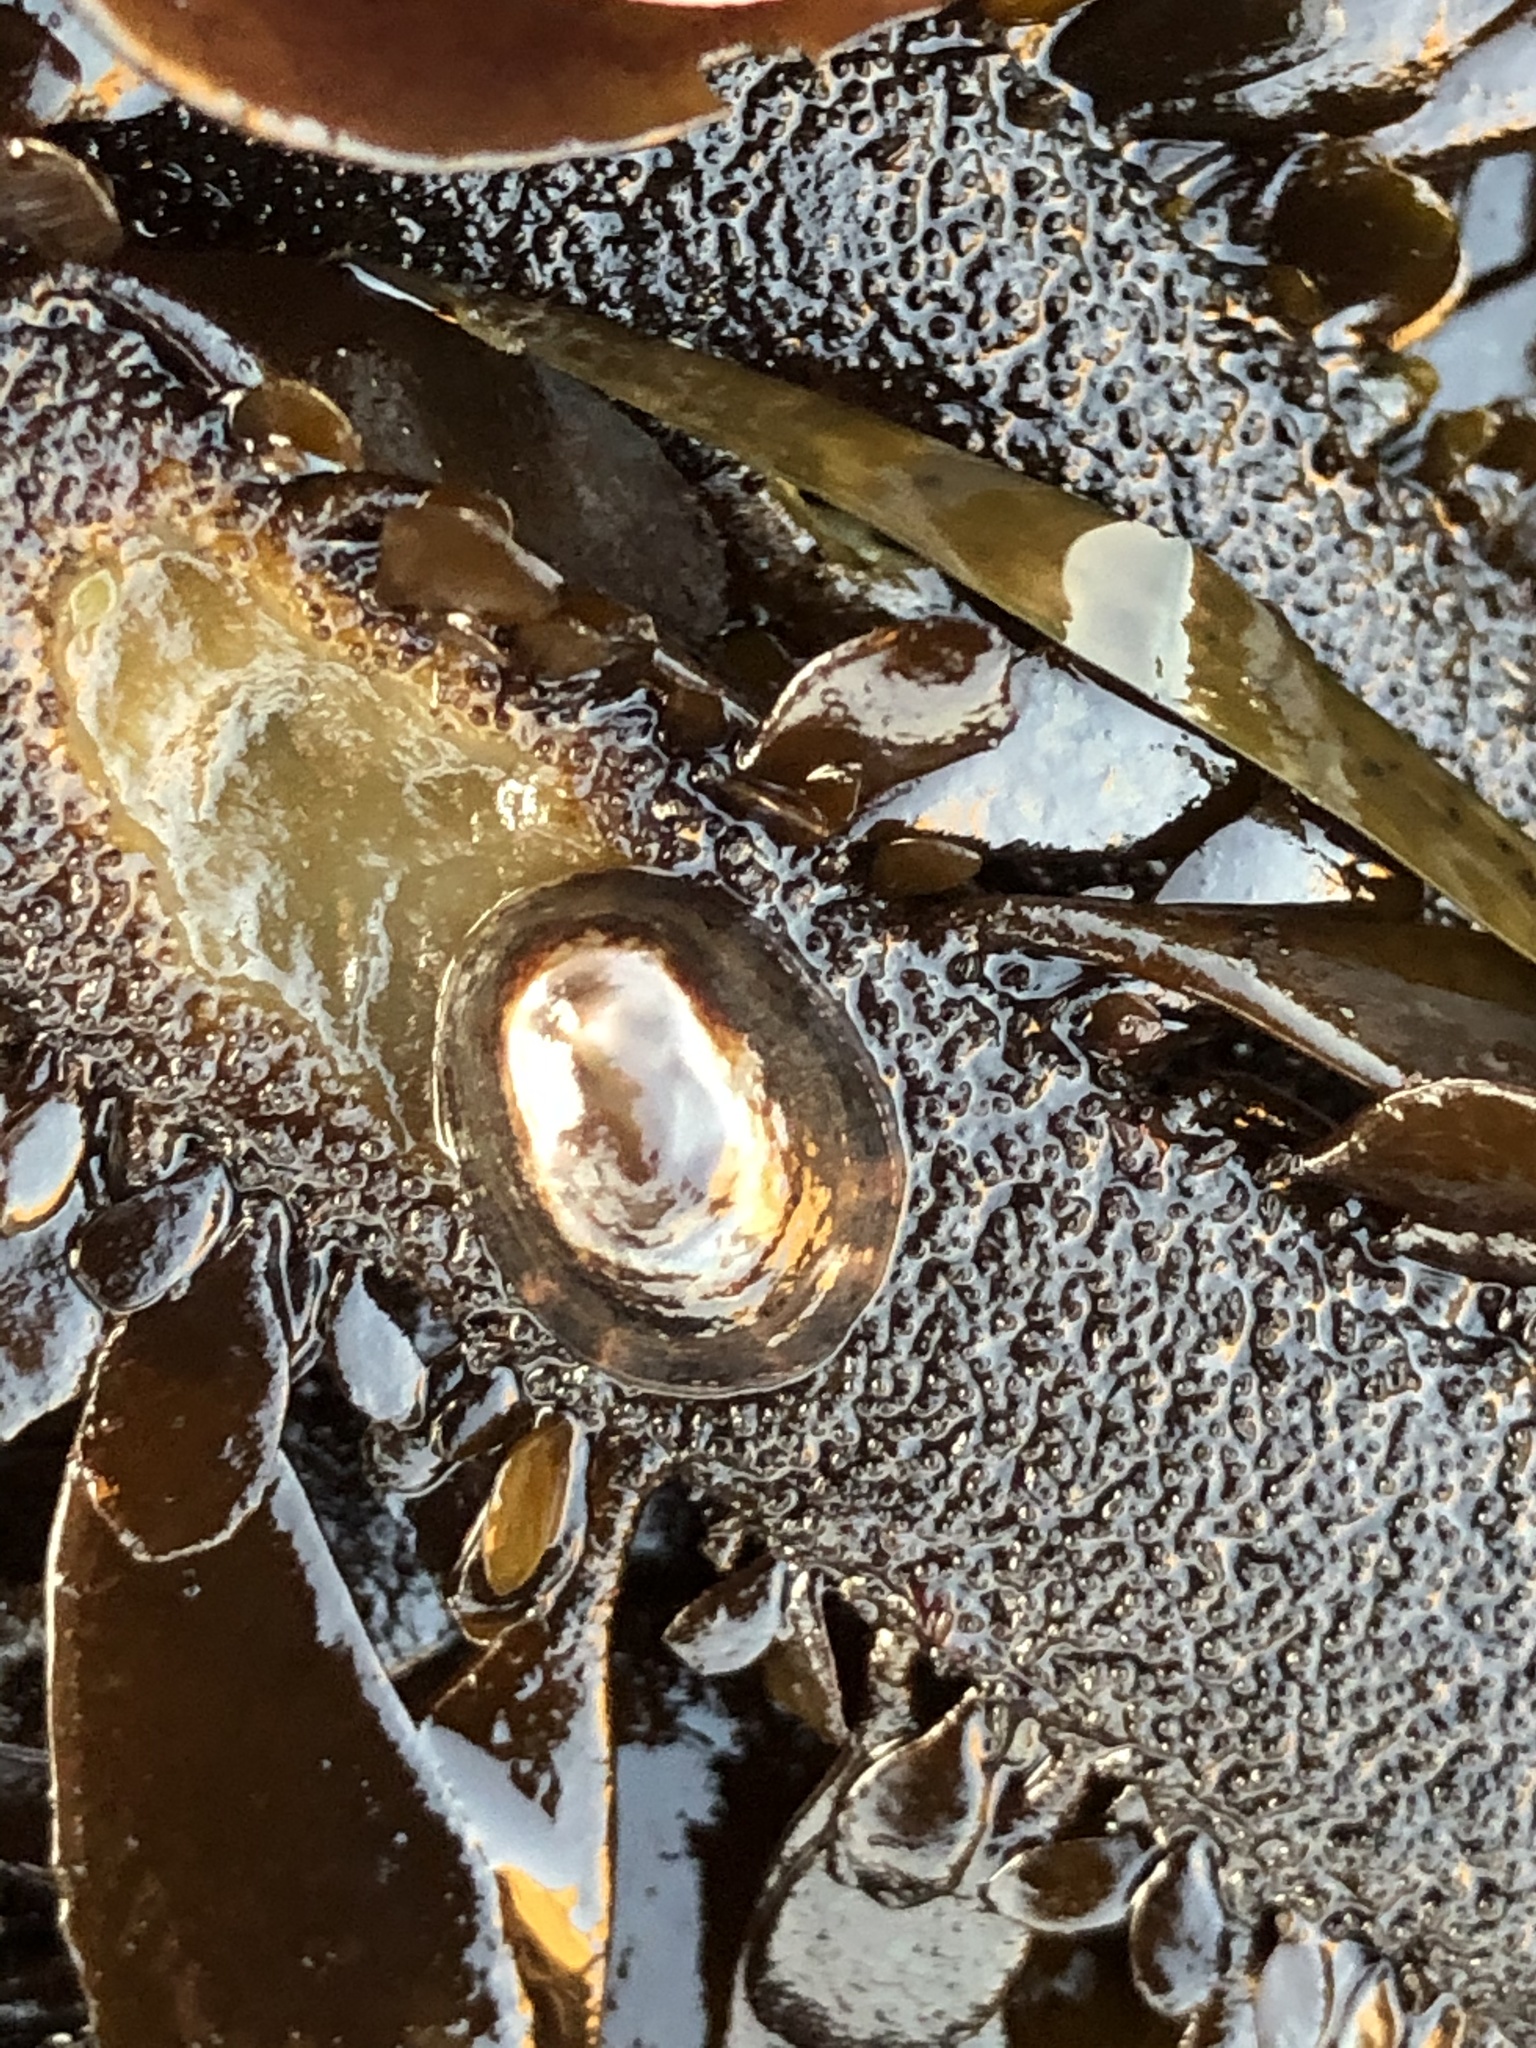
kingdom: Animalia
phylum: Mollusca
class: Gastropoda
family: Lottiidae
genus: Discurria
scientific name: Discurria insessa
